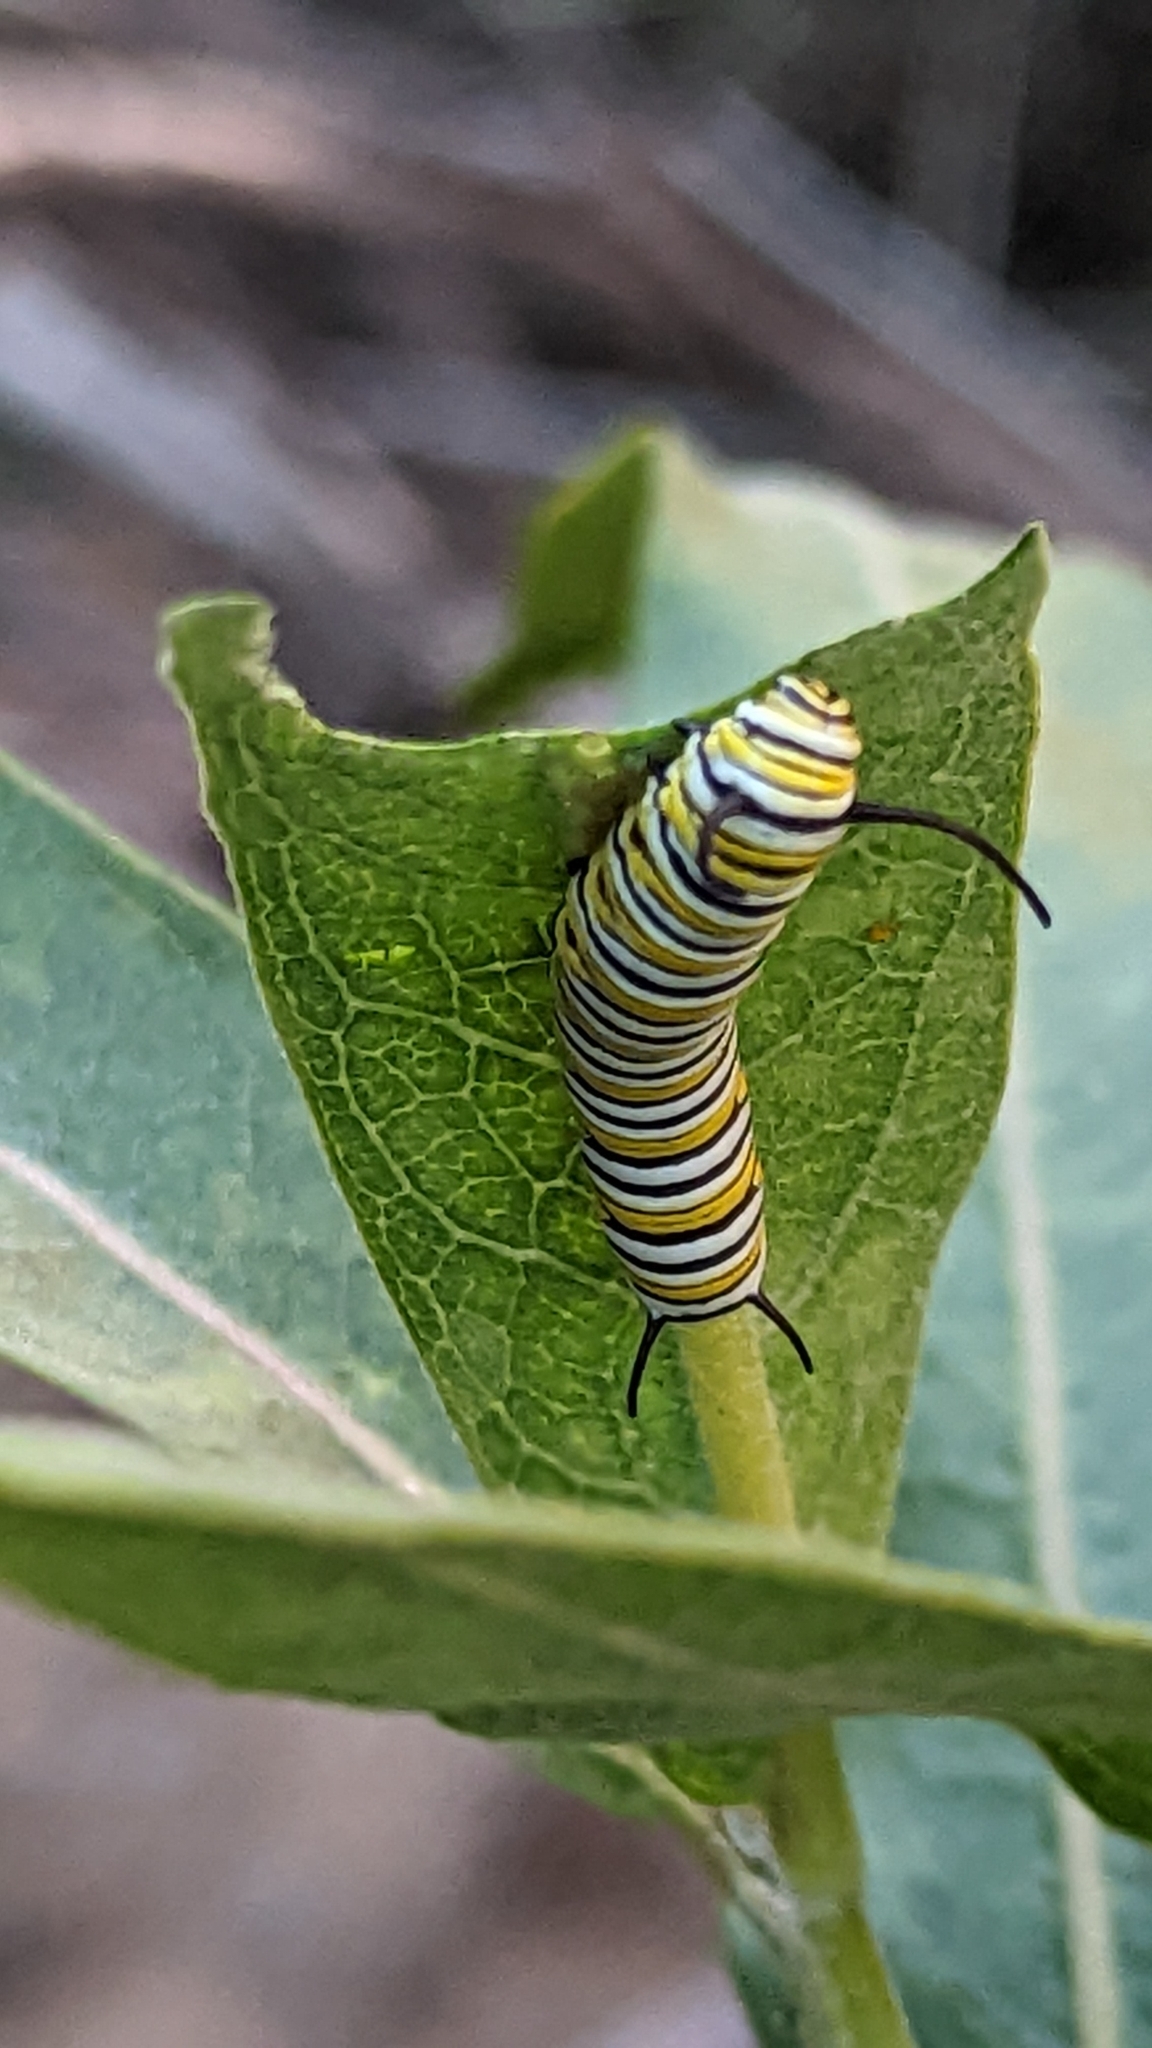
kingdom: Plantae
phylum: Tracheophyta
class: Magnoliopsida
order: Gentianales
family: Apocynaceae
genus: Asclepias
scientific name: Asclepias speciosa
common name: Showy milkweed
